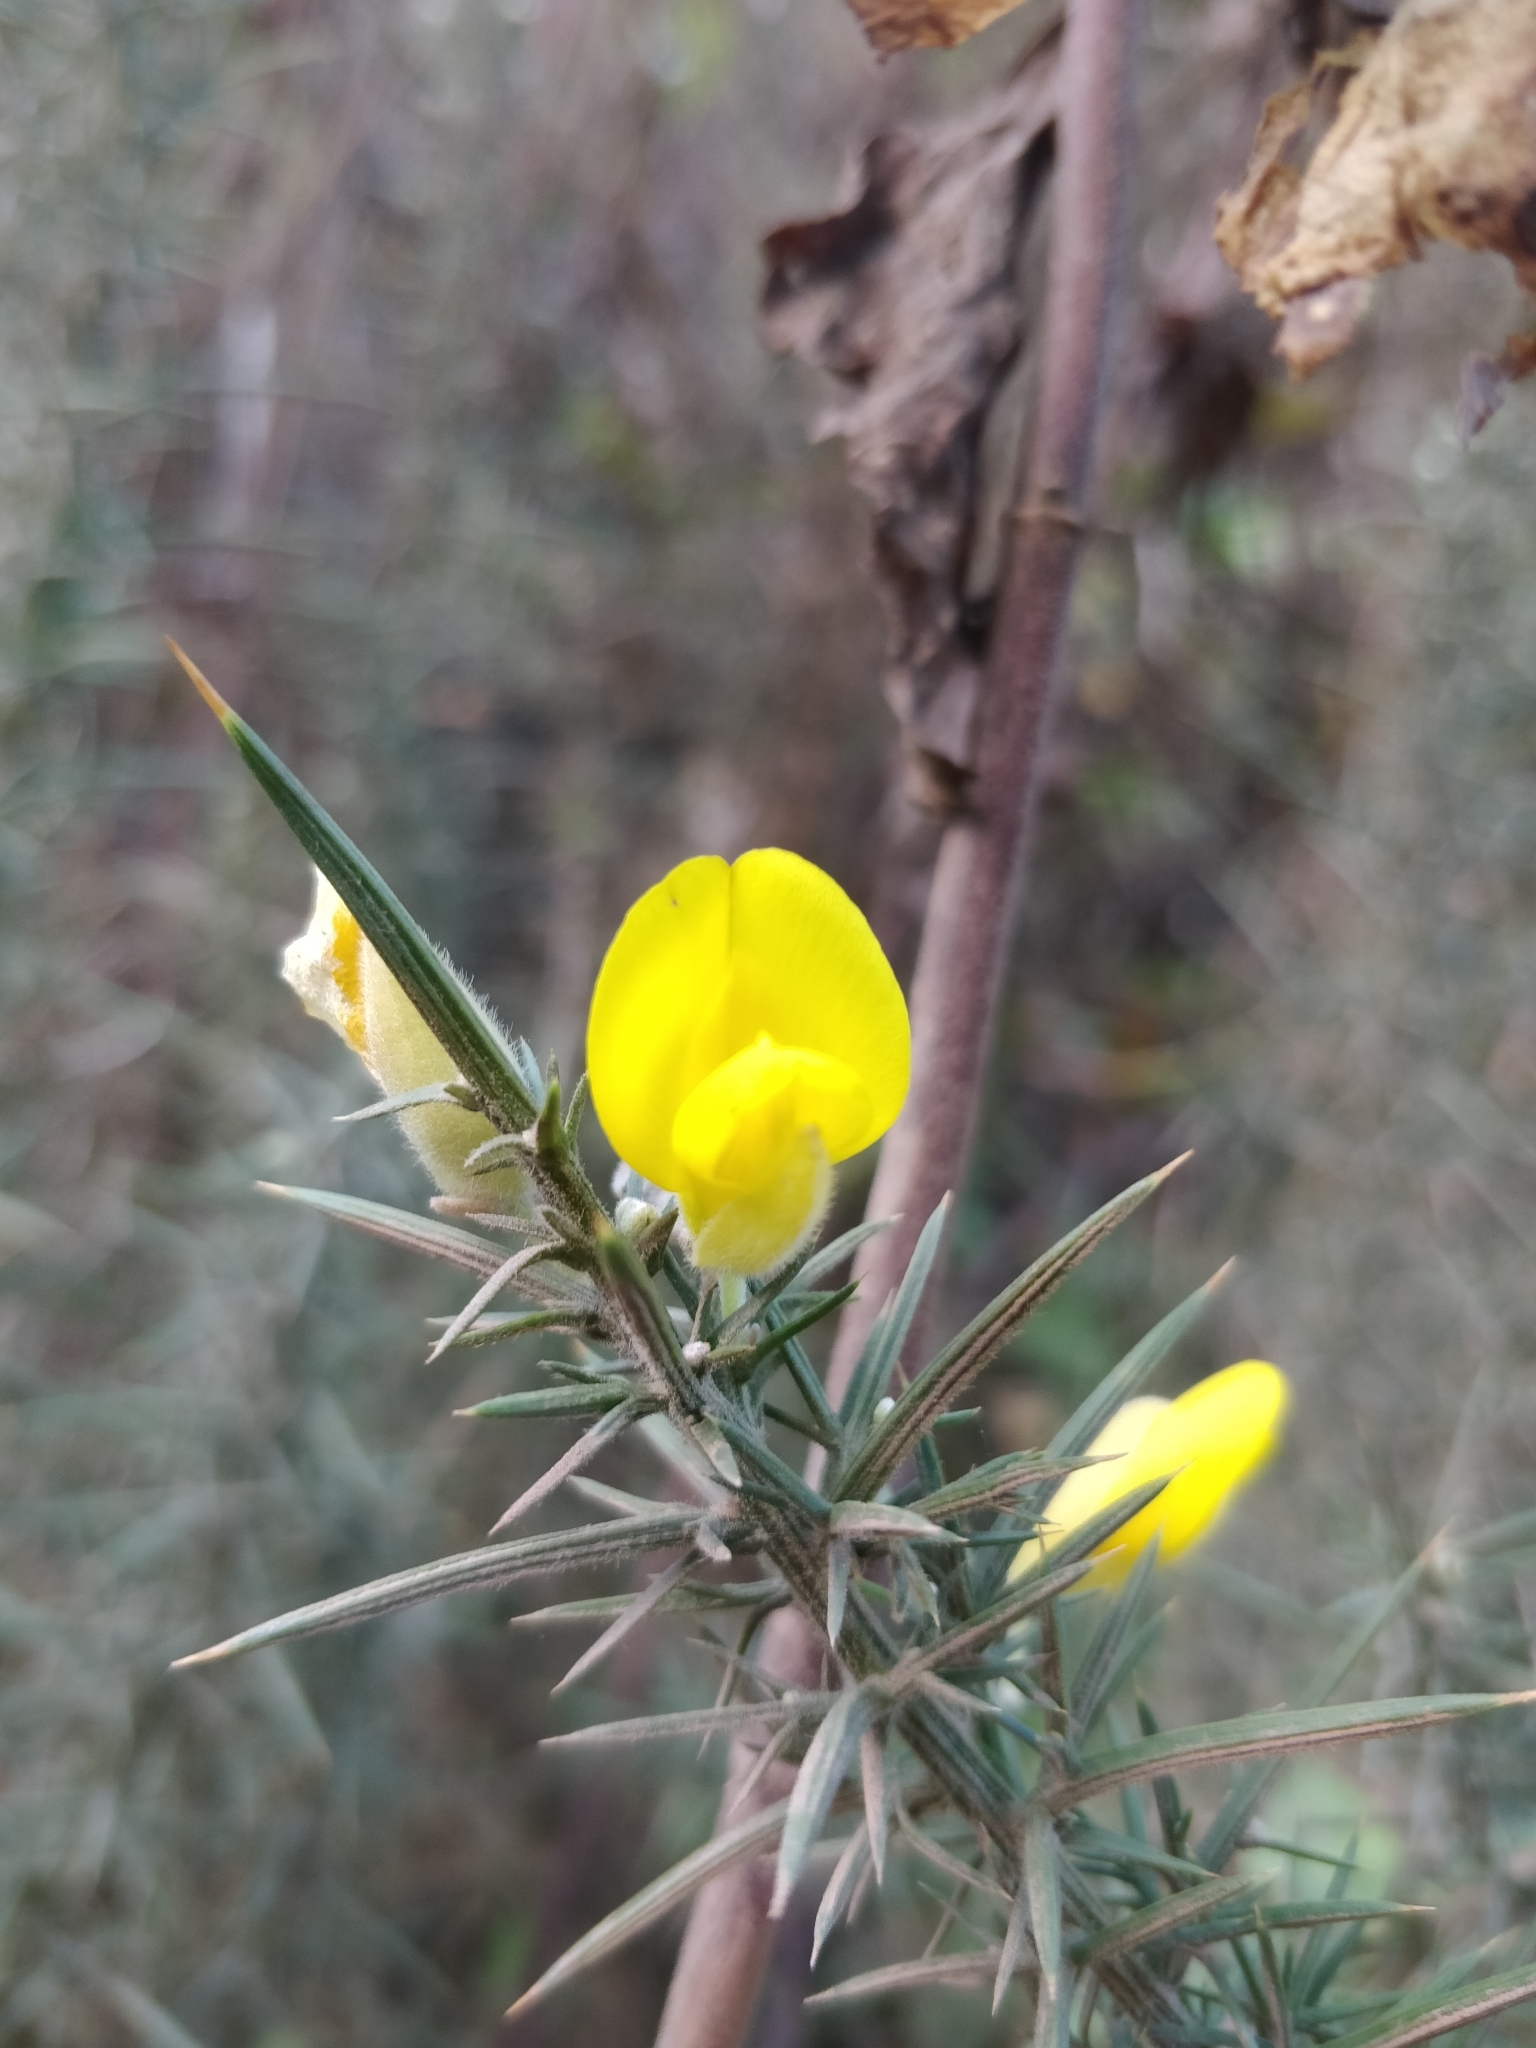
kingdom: Plantae
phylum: Tracheophyta
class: Magnoliopsida
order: Fabales
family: Fabaceae
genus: Ulex
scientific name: Ulex europaeus
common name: Common gorse
